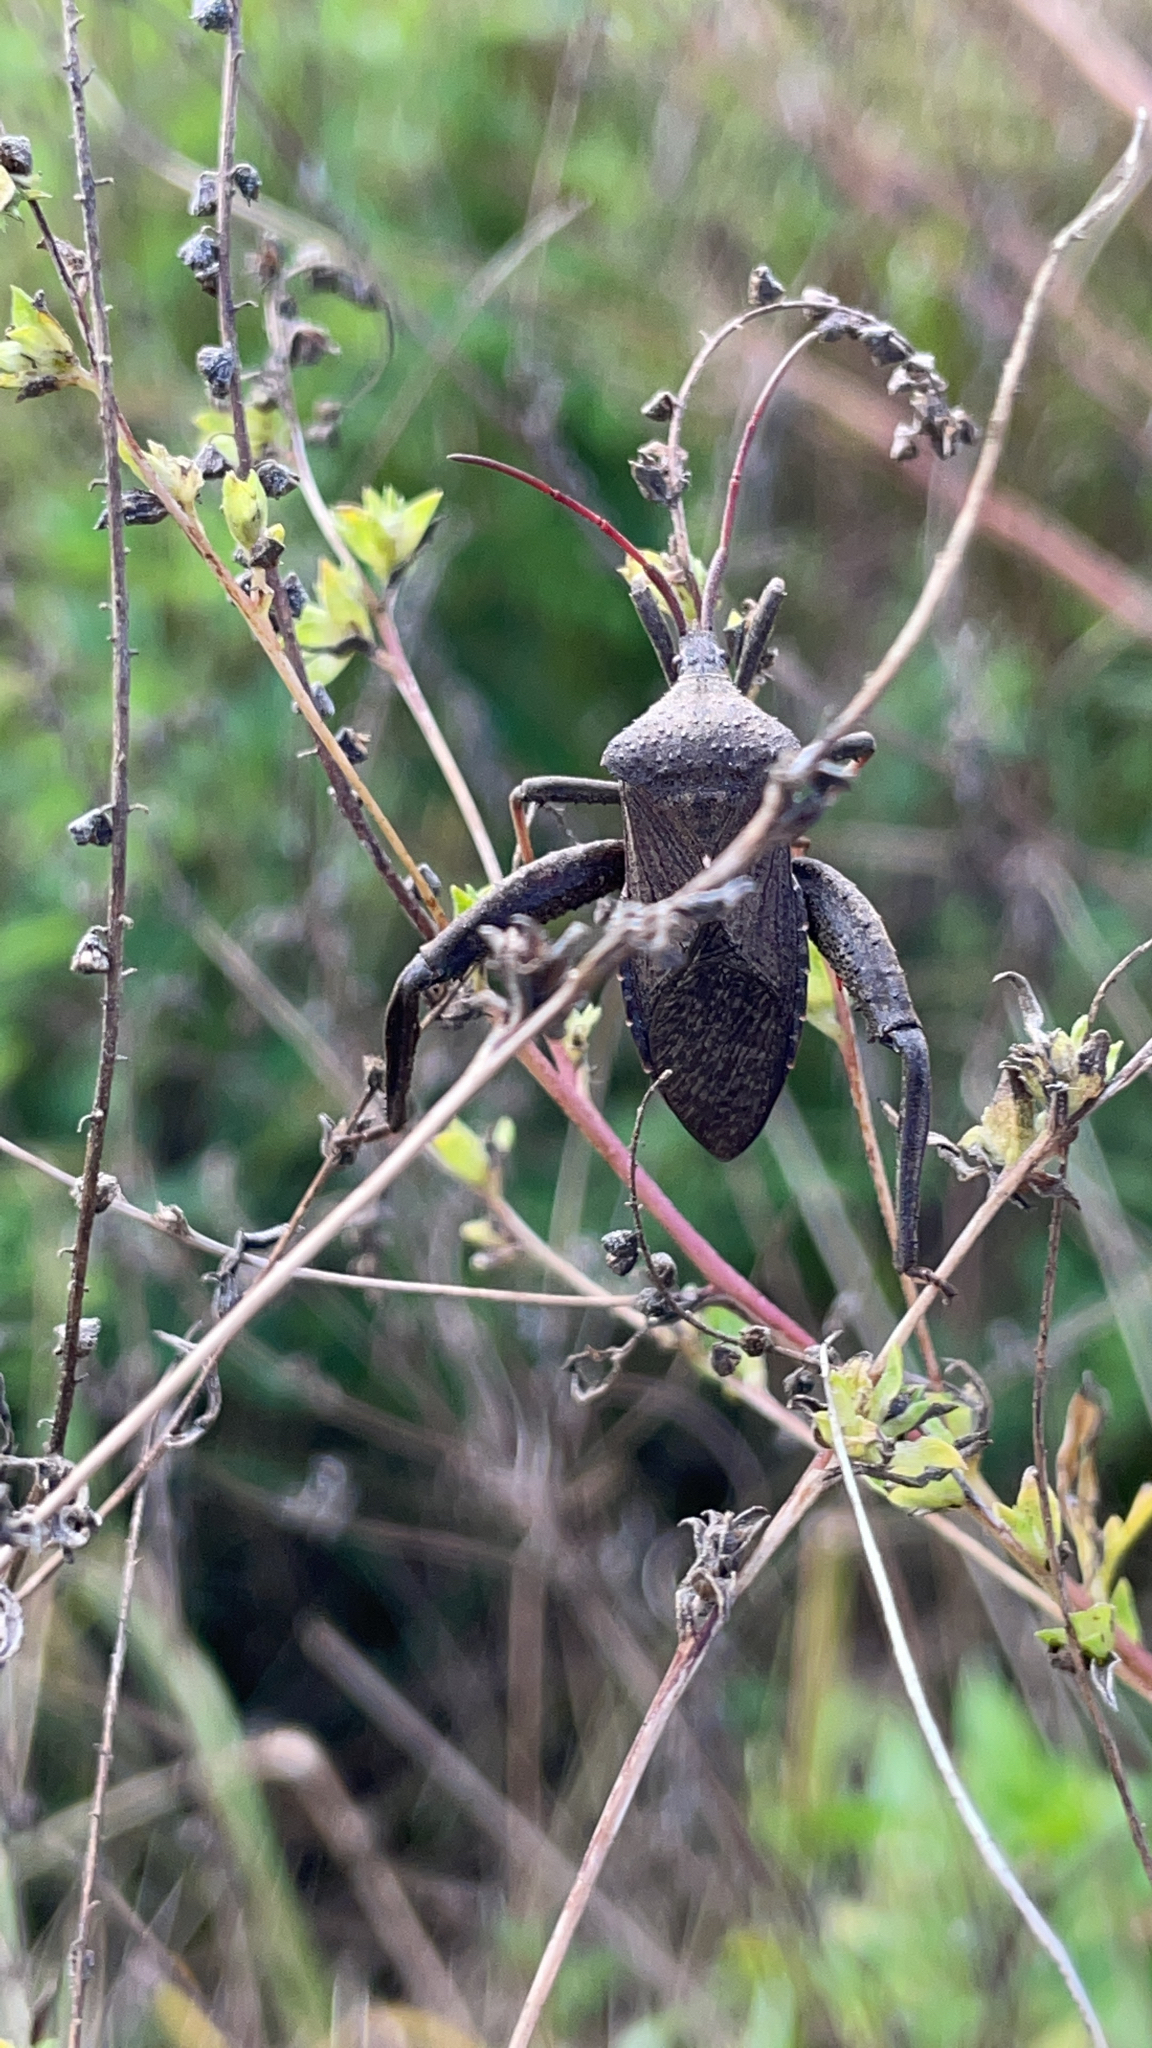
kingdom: Animalia
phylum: Arthropoda
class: Insecta
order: Hemiptera
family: Coreidae
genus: Acanthocephala
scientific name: Acanthocephala femorata
